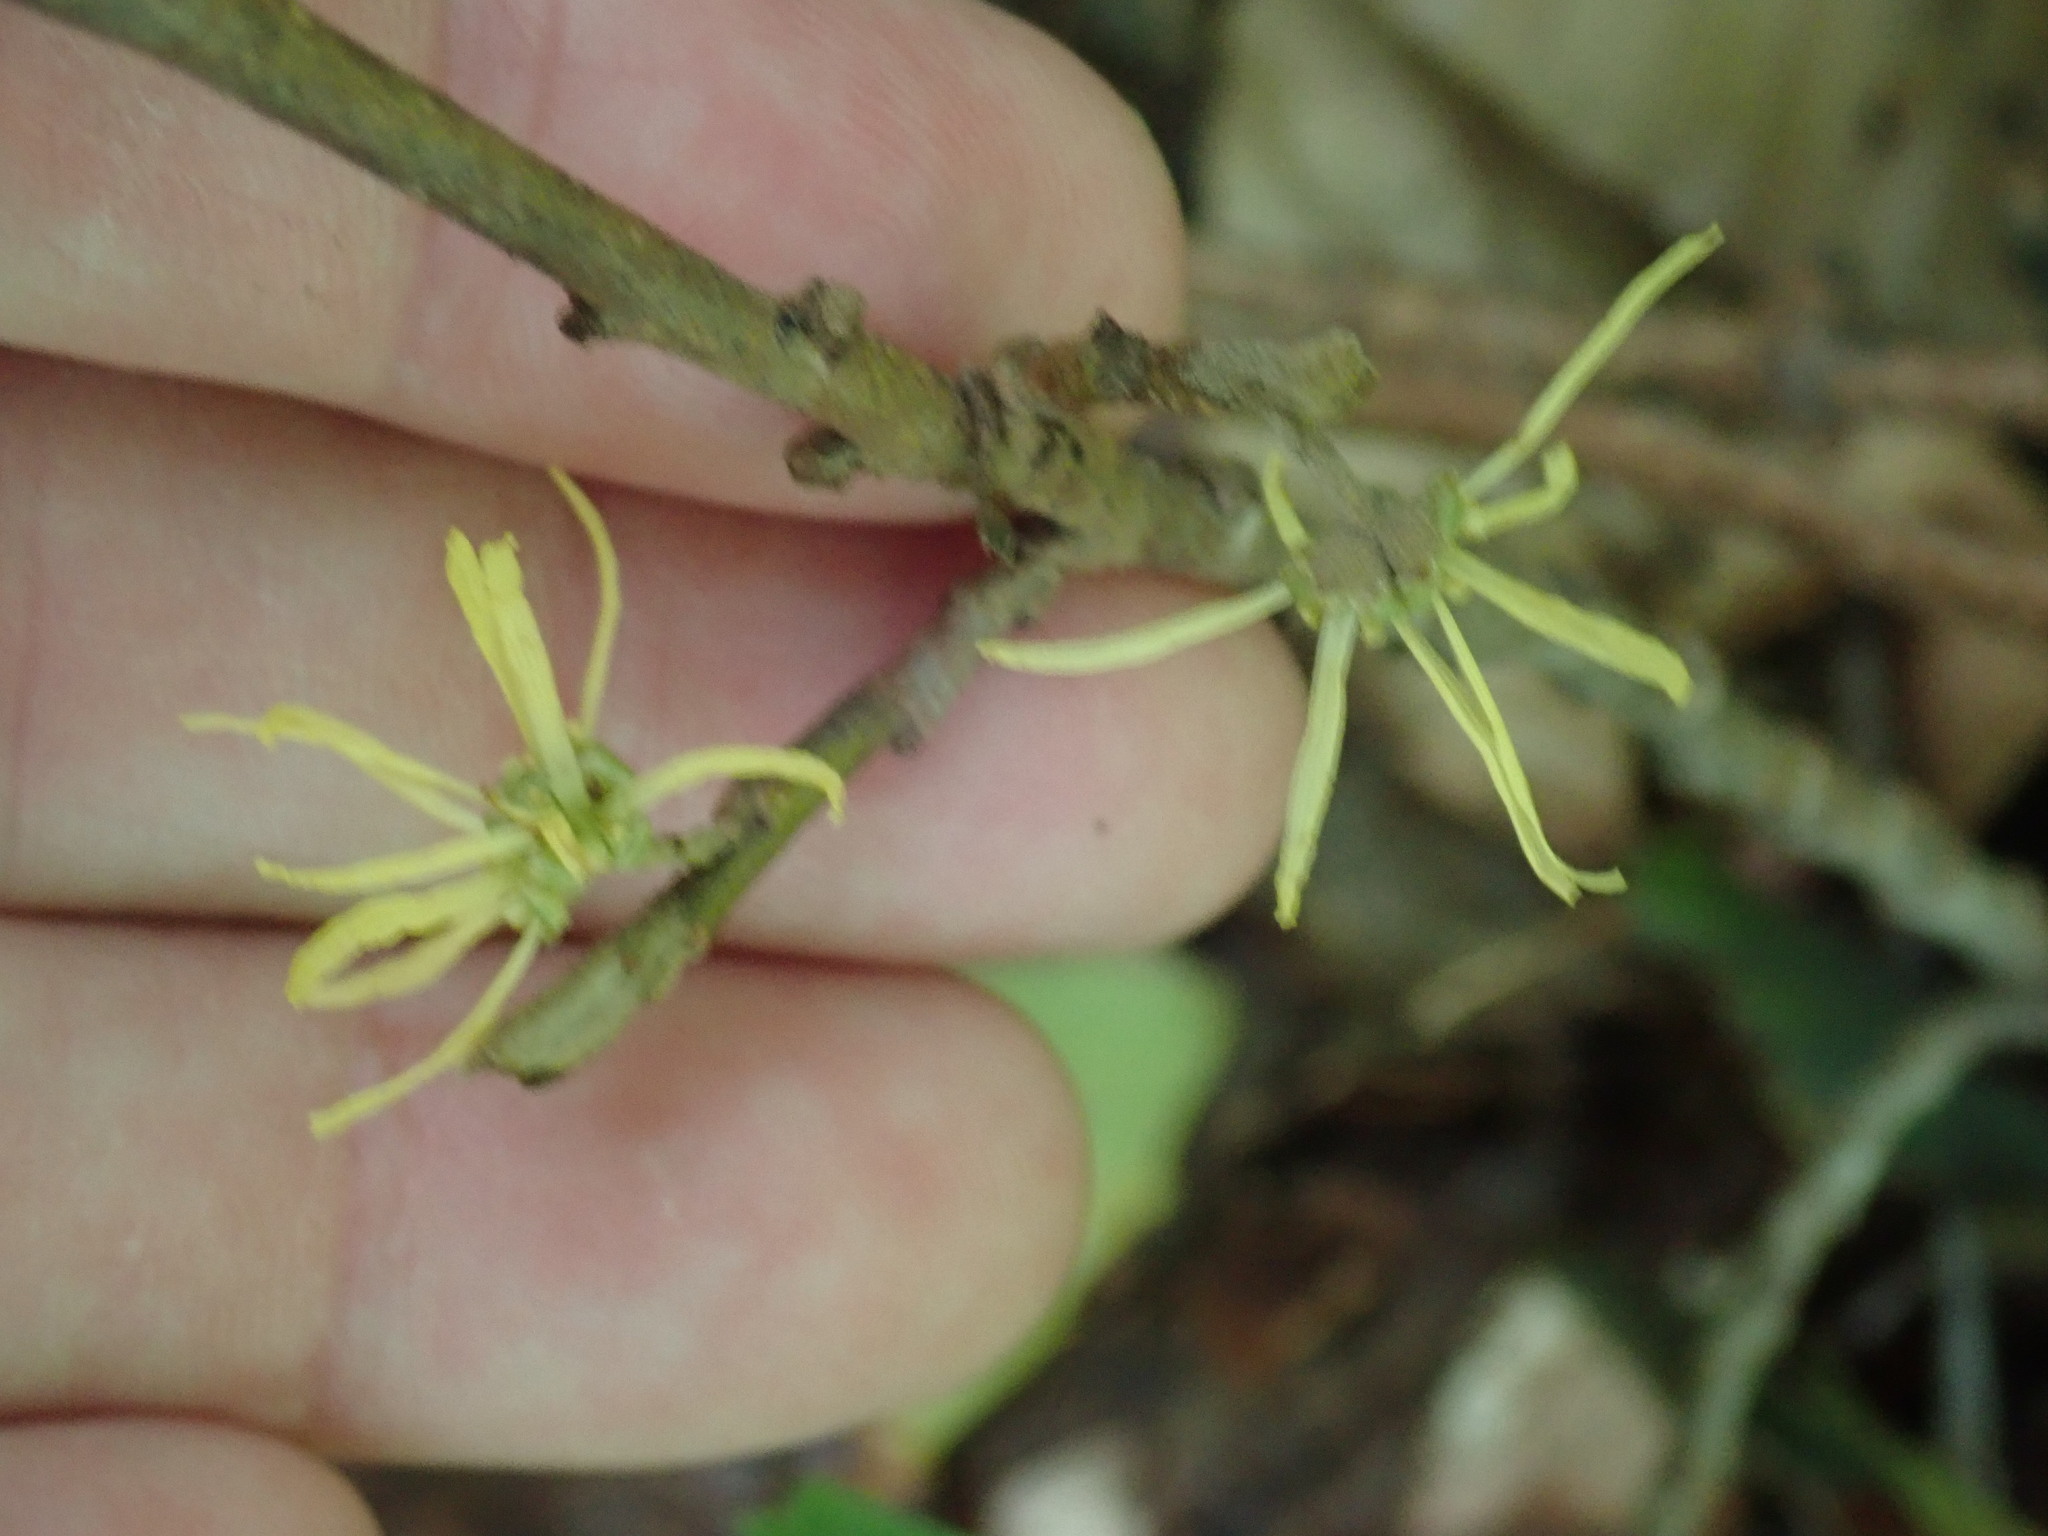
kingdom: Plantae
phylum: Tracheophyta
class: Magnoliopsida
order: Saxifragales
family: Hamamelidaceae
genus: Hamamelis
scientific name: Hamamelis virginiana
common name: Witch-hazel
